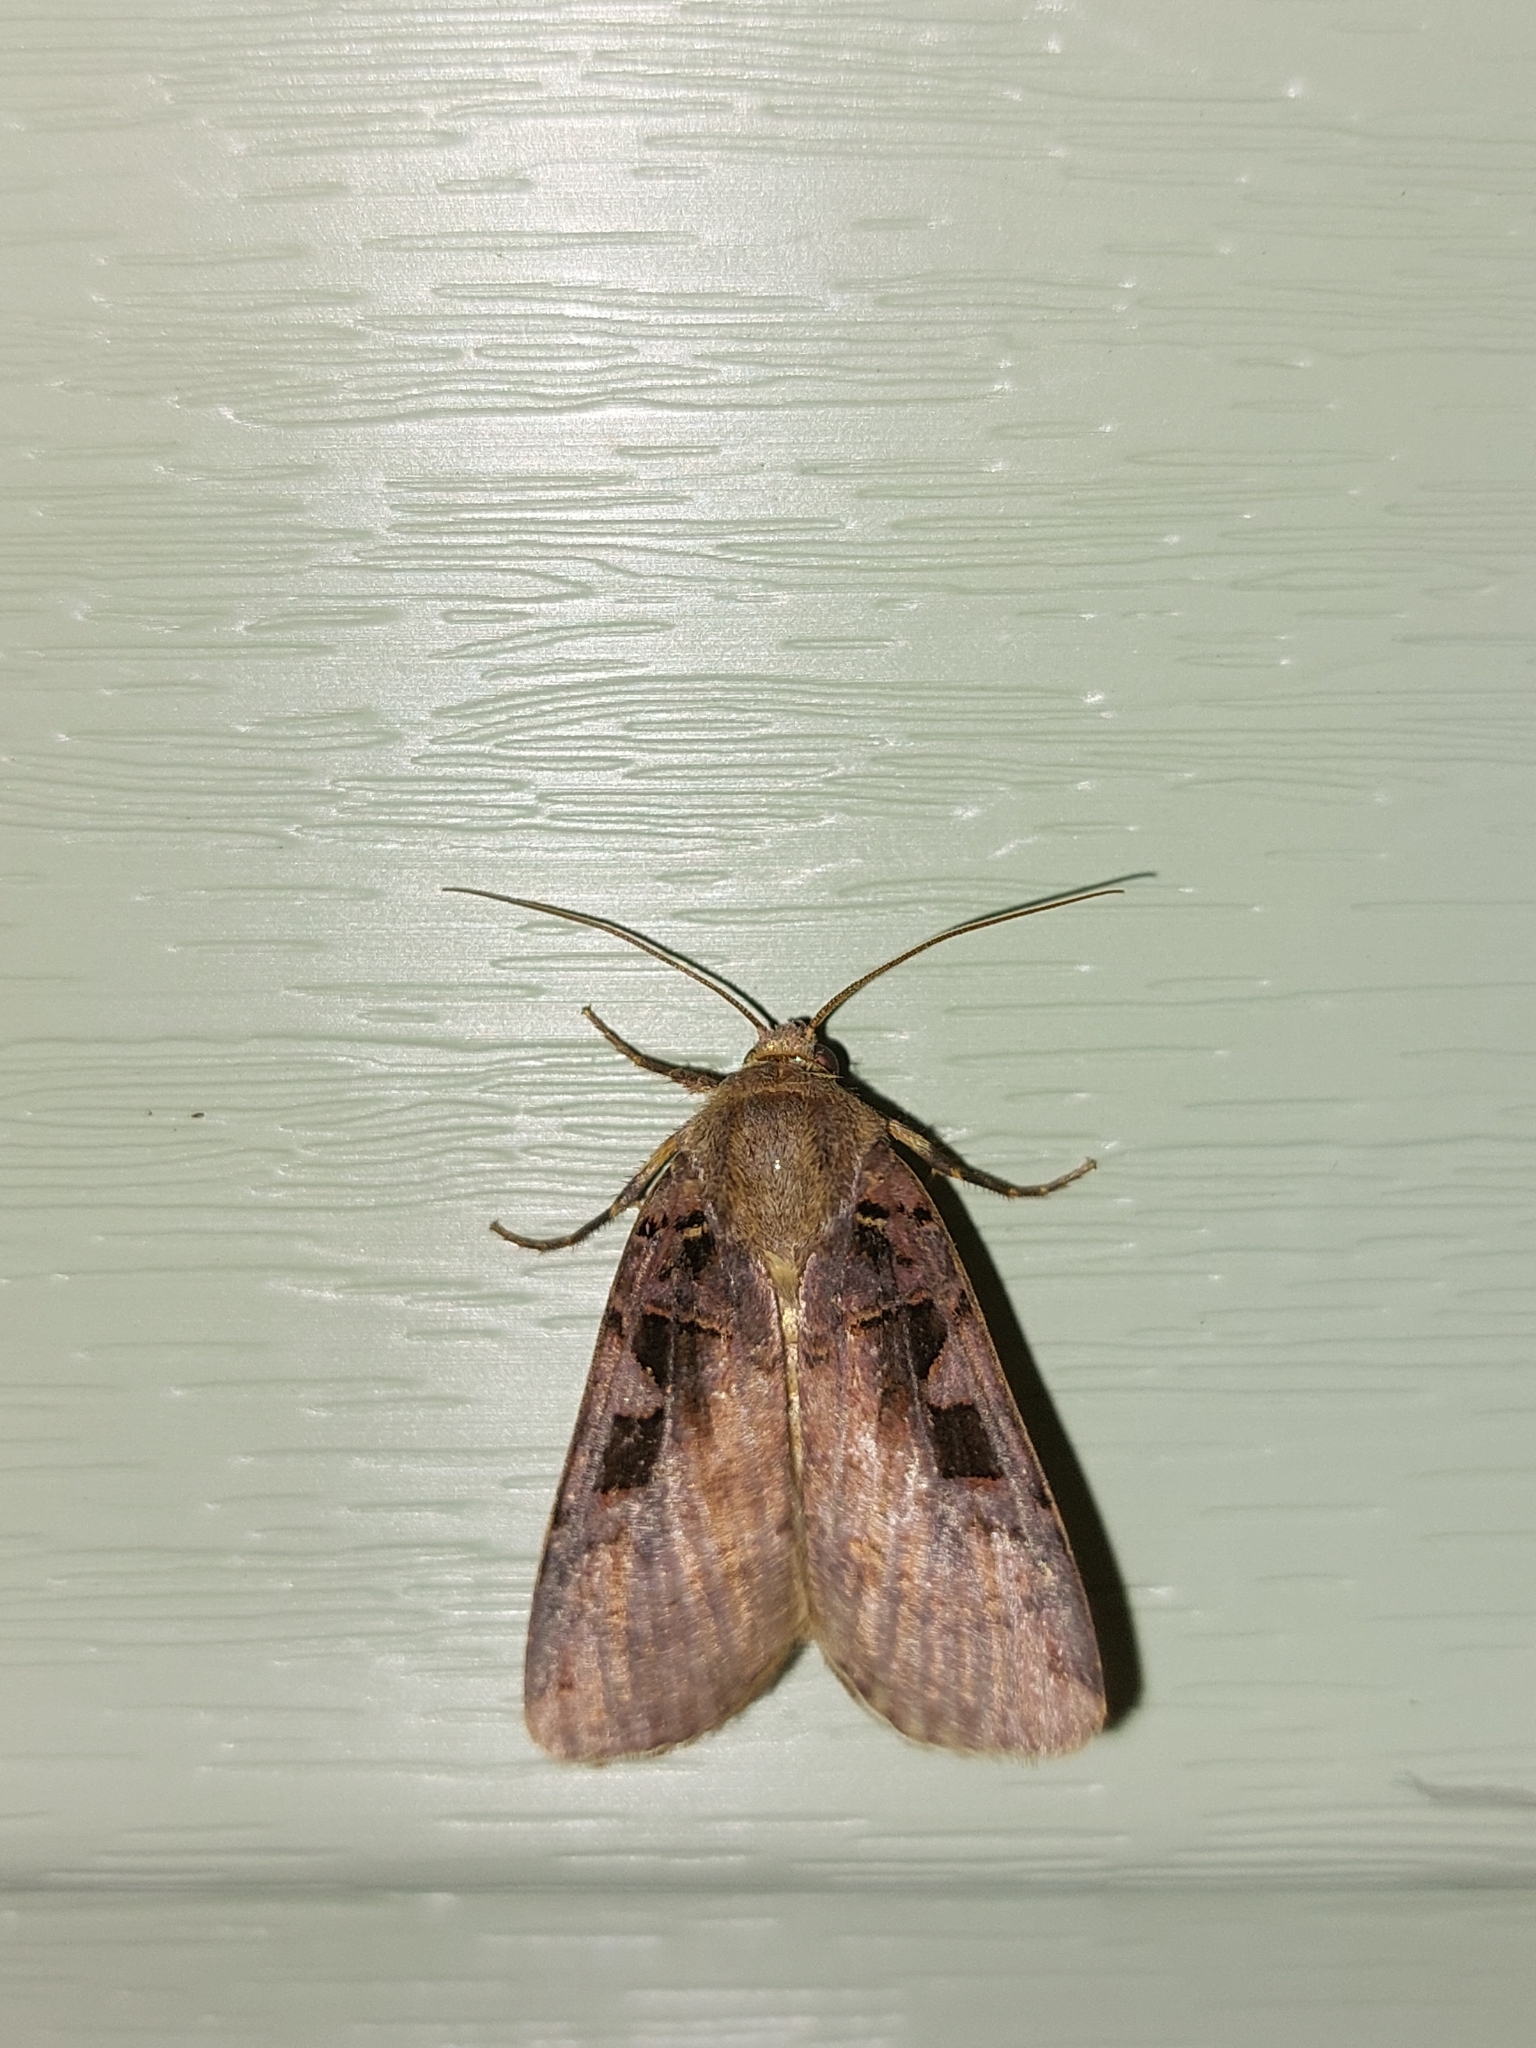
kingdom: Animalia
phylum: Arthropoda
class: Insecta
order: Lepidoptera
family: Noctuidae
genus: Xestia
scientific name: Xestia ditrapezium
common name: Triple-spotted clay
